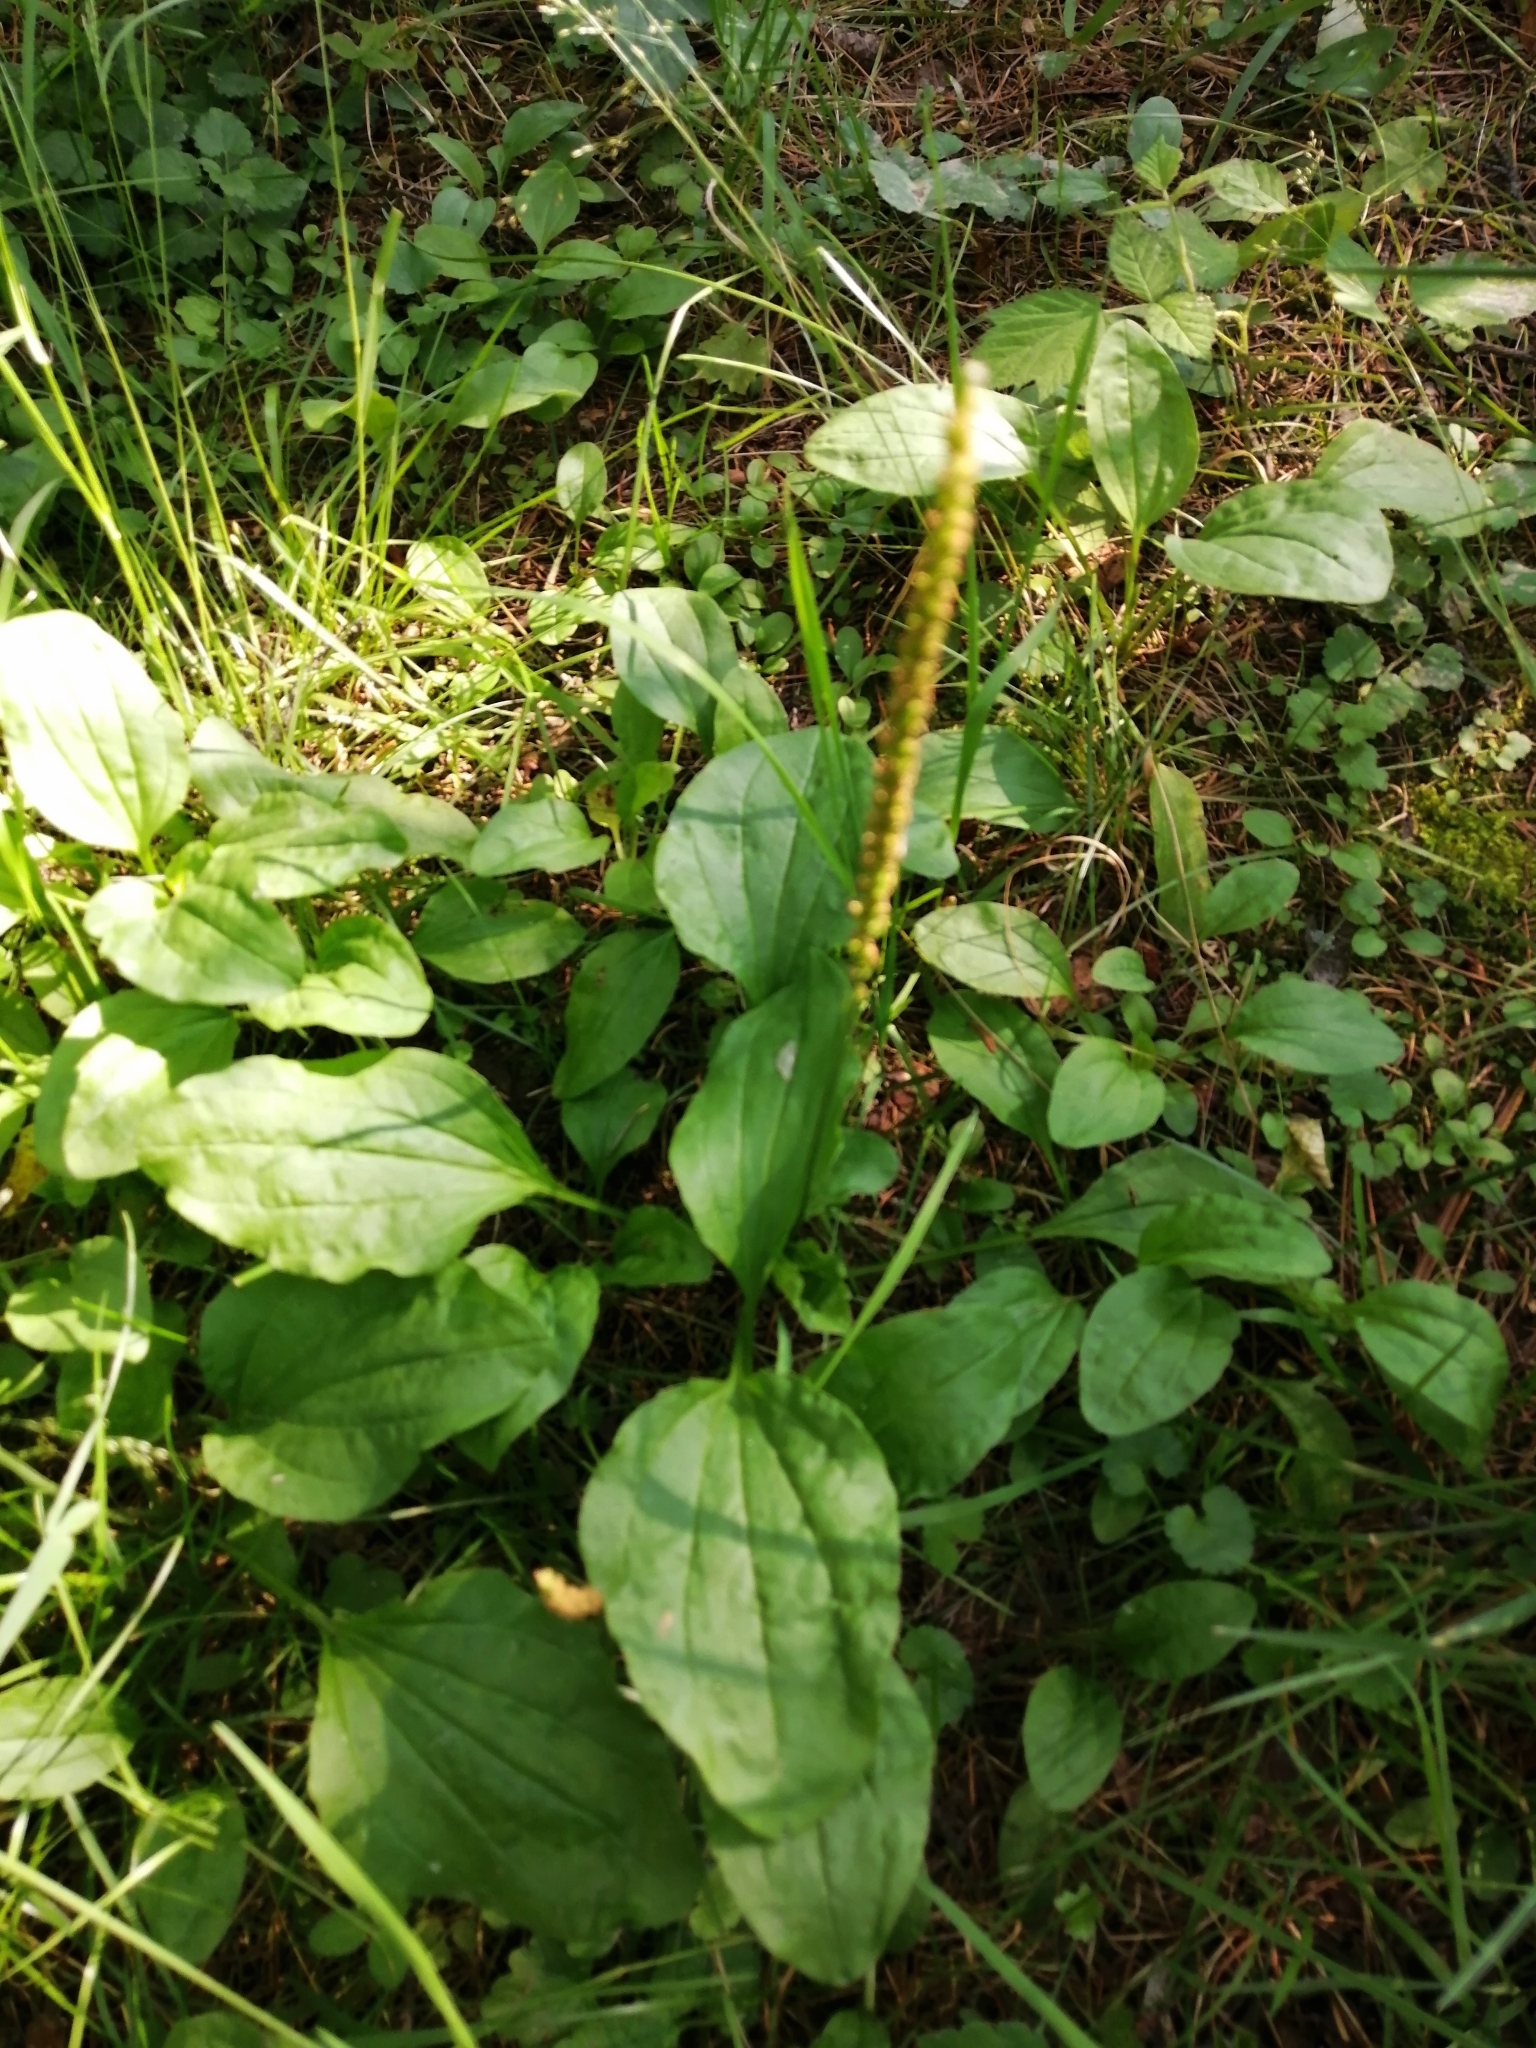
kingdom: Plantae
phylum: Tracheophyta
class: Magnoliopsida
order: Lamiales
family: Plantaginaceae
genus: Plantago
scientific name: Plantago major
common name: Common plantain
